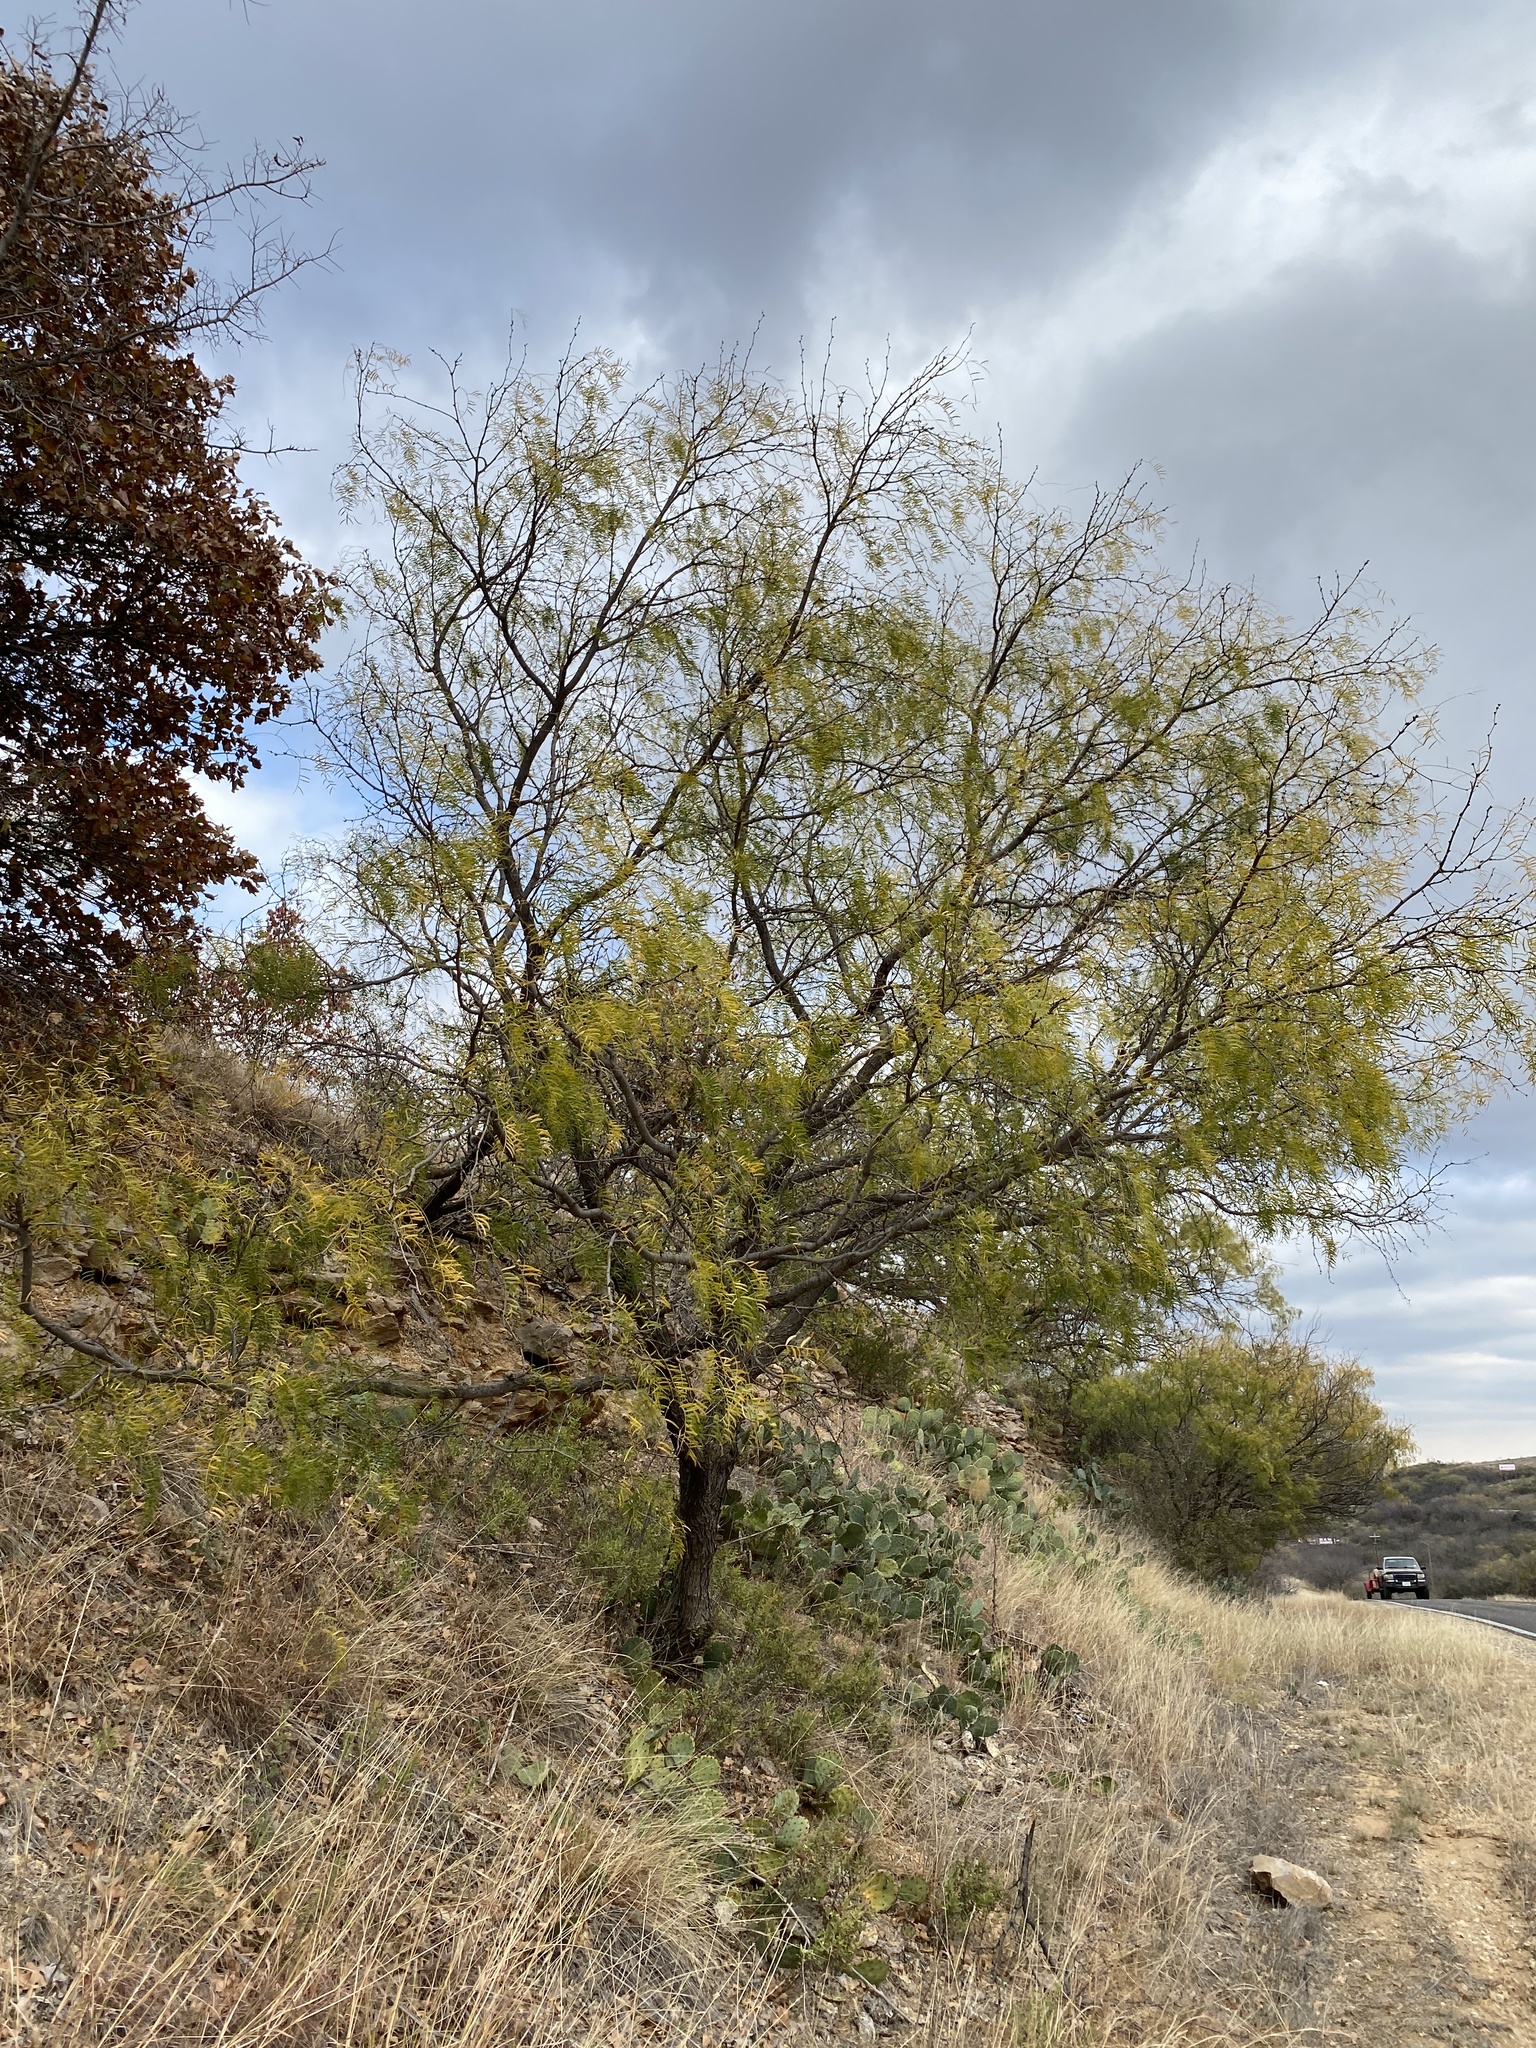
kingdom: Plantae
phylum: Tracheophyta
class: Magnoliopsida
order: Fabales
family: Fabaceae
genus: Prosopis
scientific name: Prosopis glandulosa
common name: Honey mesquite
